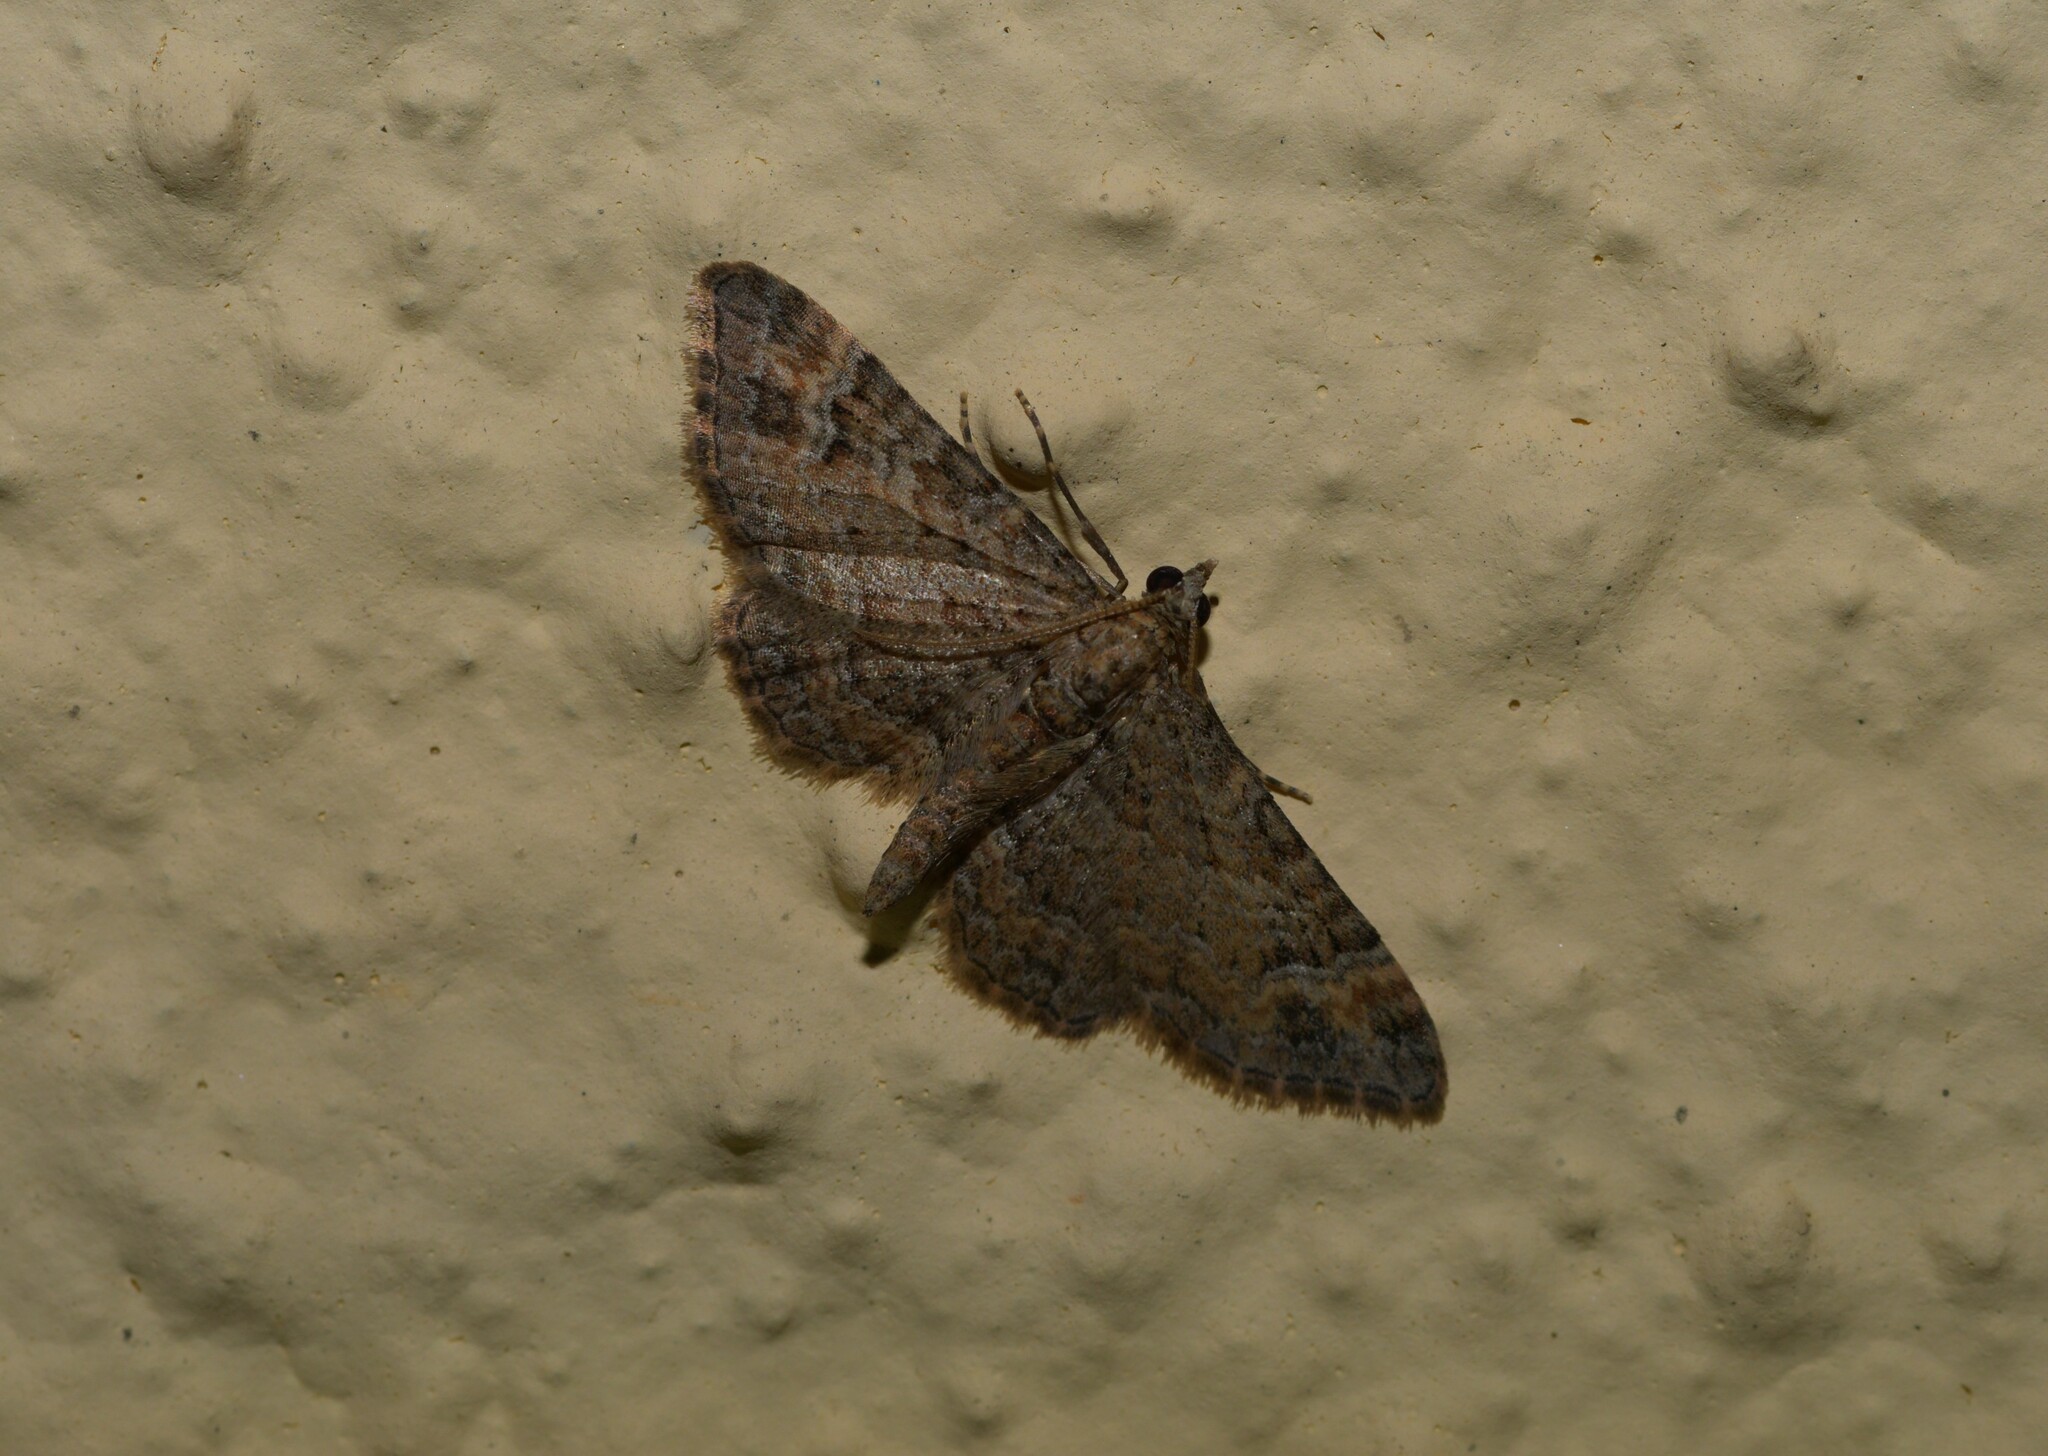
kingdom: Animalia
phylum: Arthropoda
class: Insecta
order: Lepidoptera
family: Geometridae
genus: Gymnoscelis
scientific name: Gymnoscelis rufifasciata
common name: Double-striped pug
